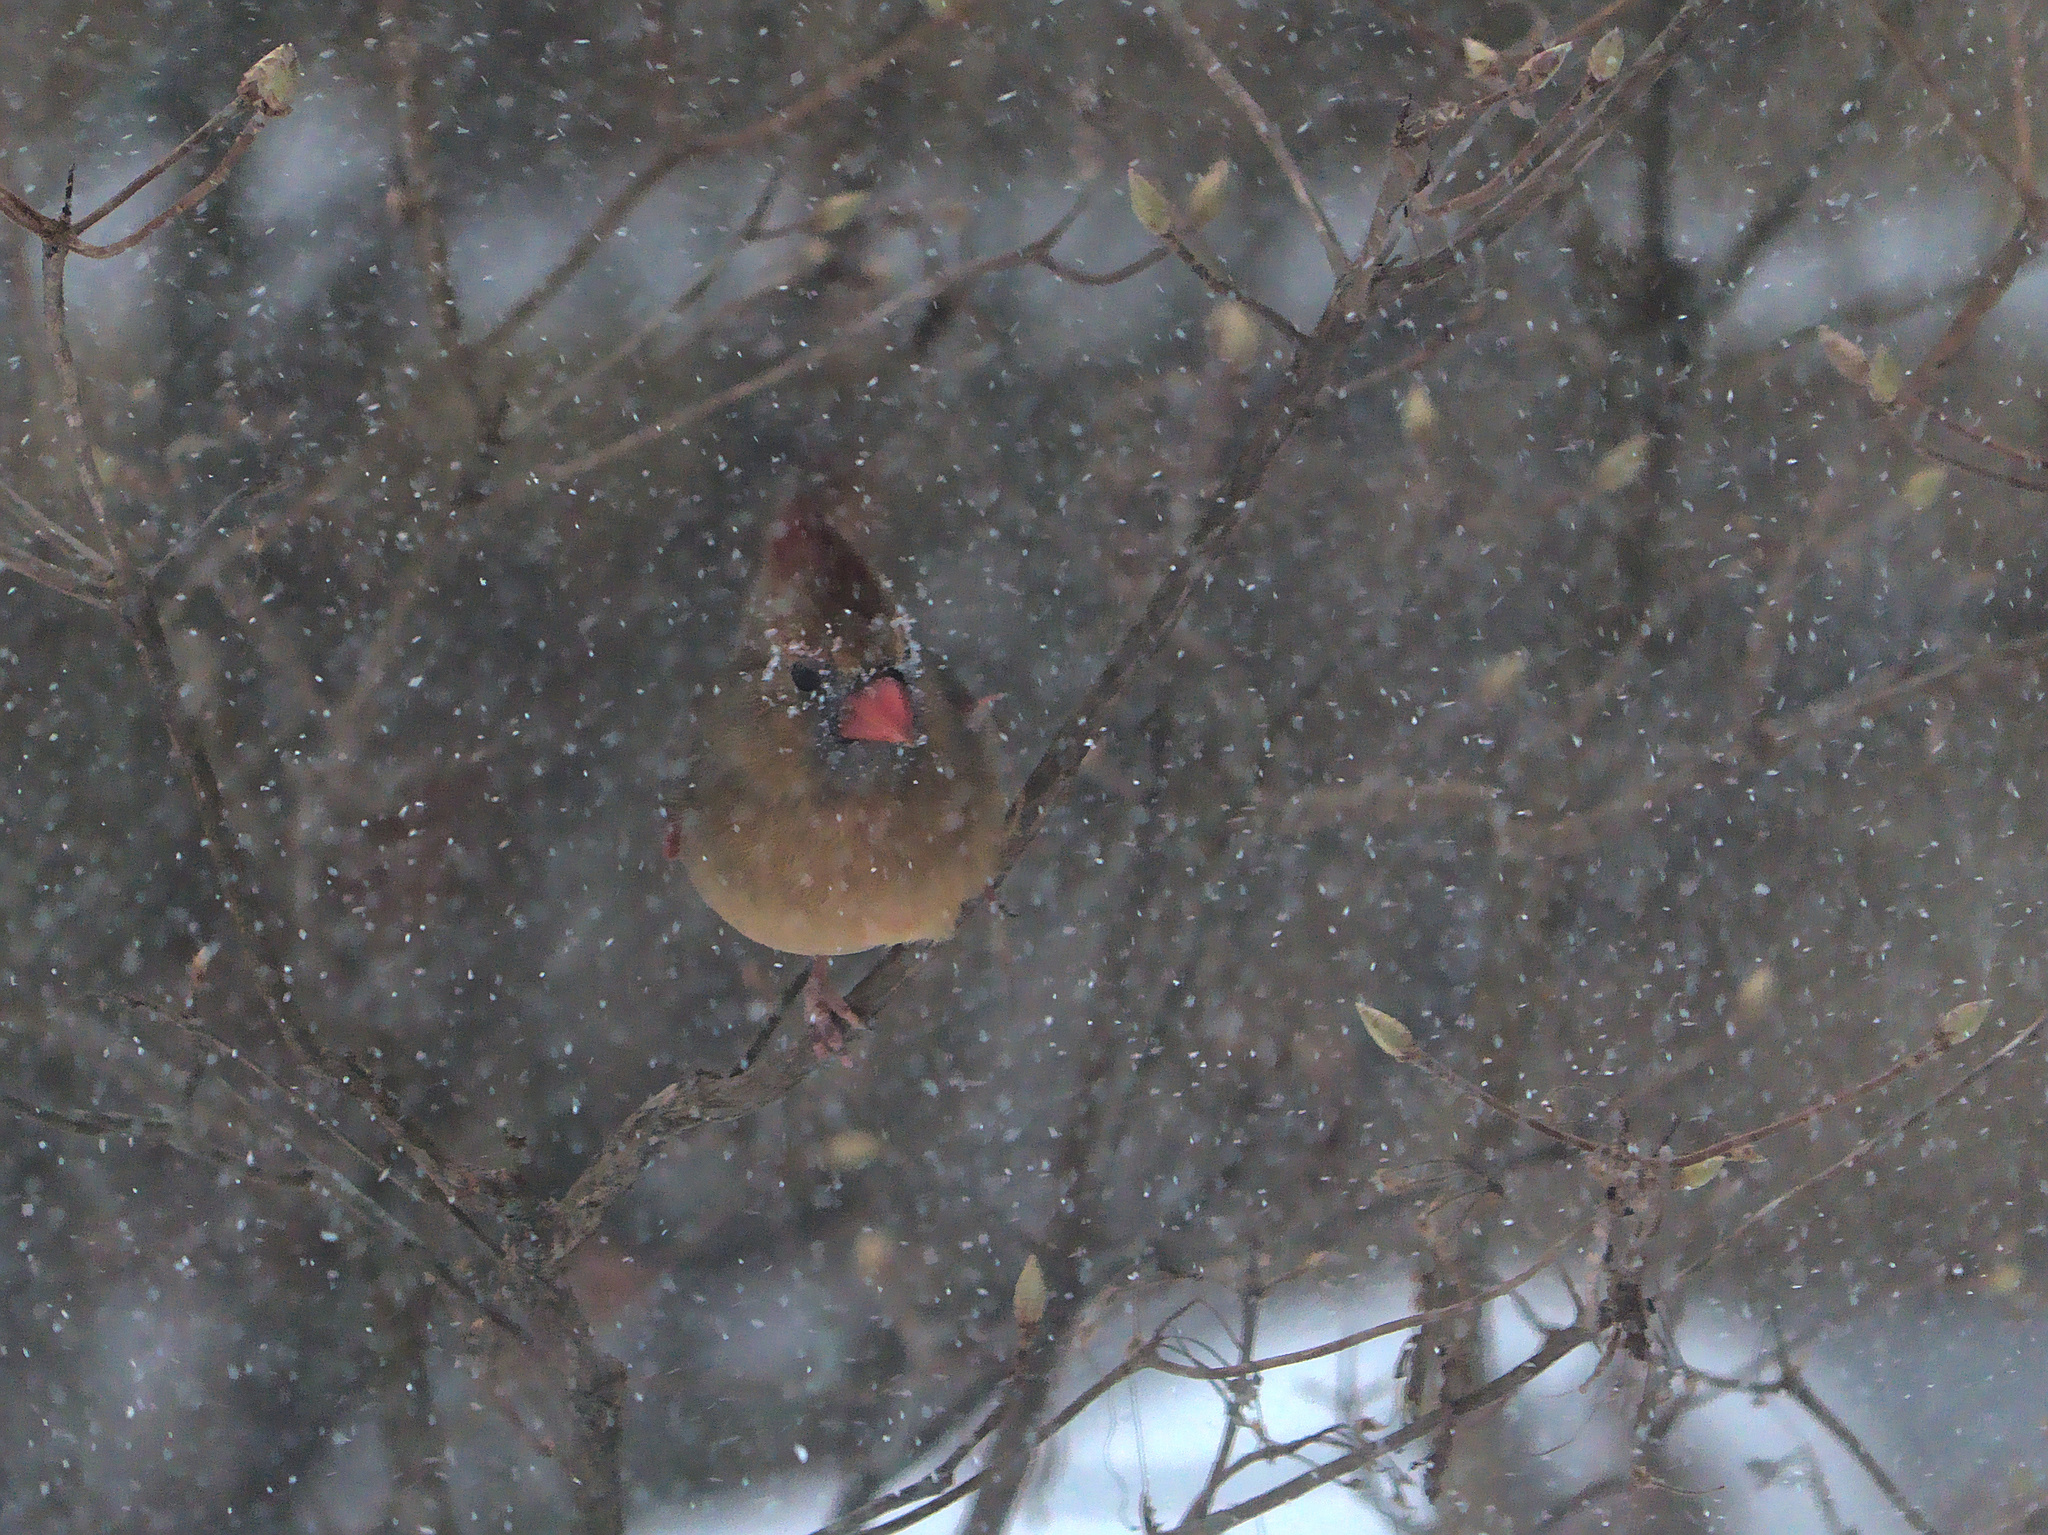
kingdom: Animalia
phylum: Chordata
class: Aves
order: Passeriformes
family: Cardinalidae
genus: Cardinalis
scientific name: Cardinalis cardinalis
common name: Northern cardinal
